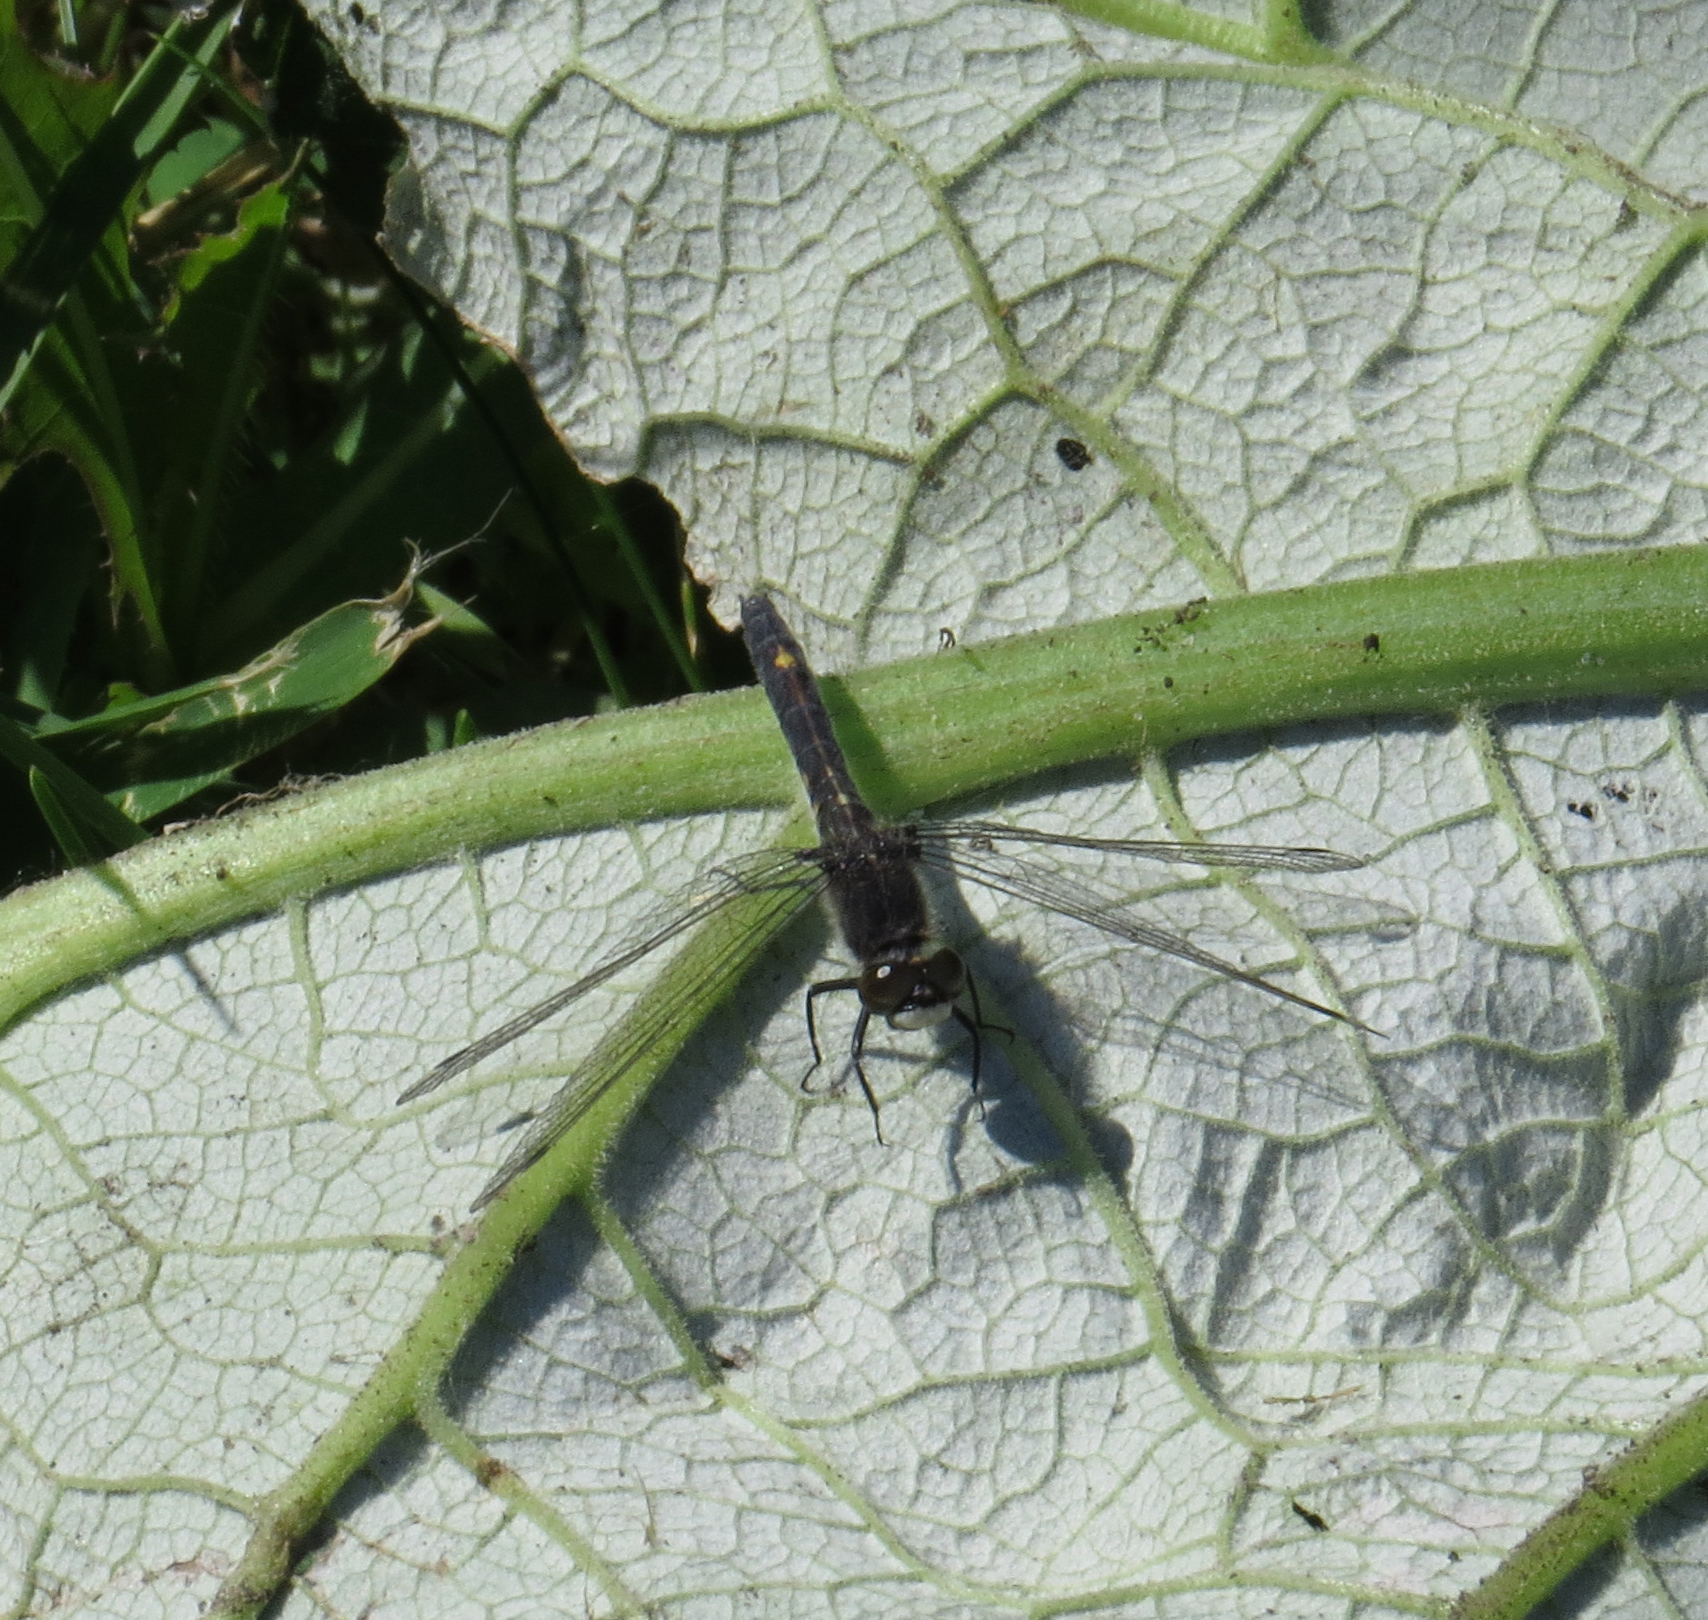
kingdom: Animalia
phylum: Arthropoda
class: Insecta
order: Odonata
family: Libellulidae
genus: Leucorrhinia
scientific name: Leucorrhinia intacta
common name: Dot-tailed whiteface
